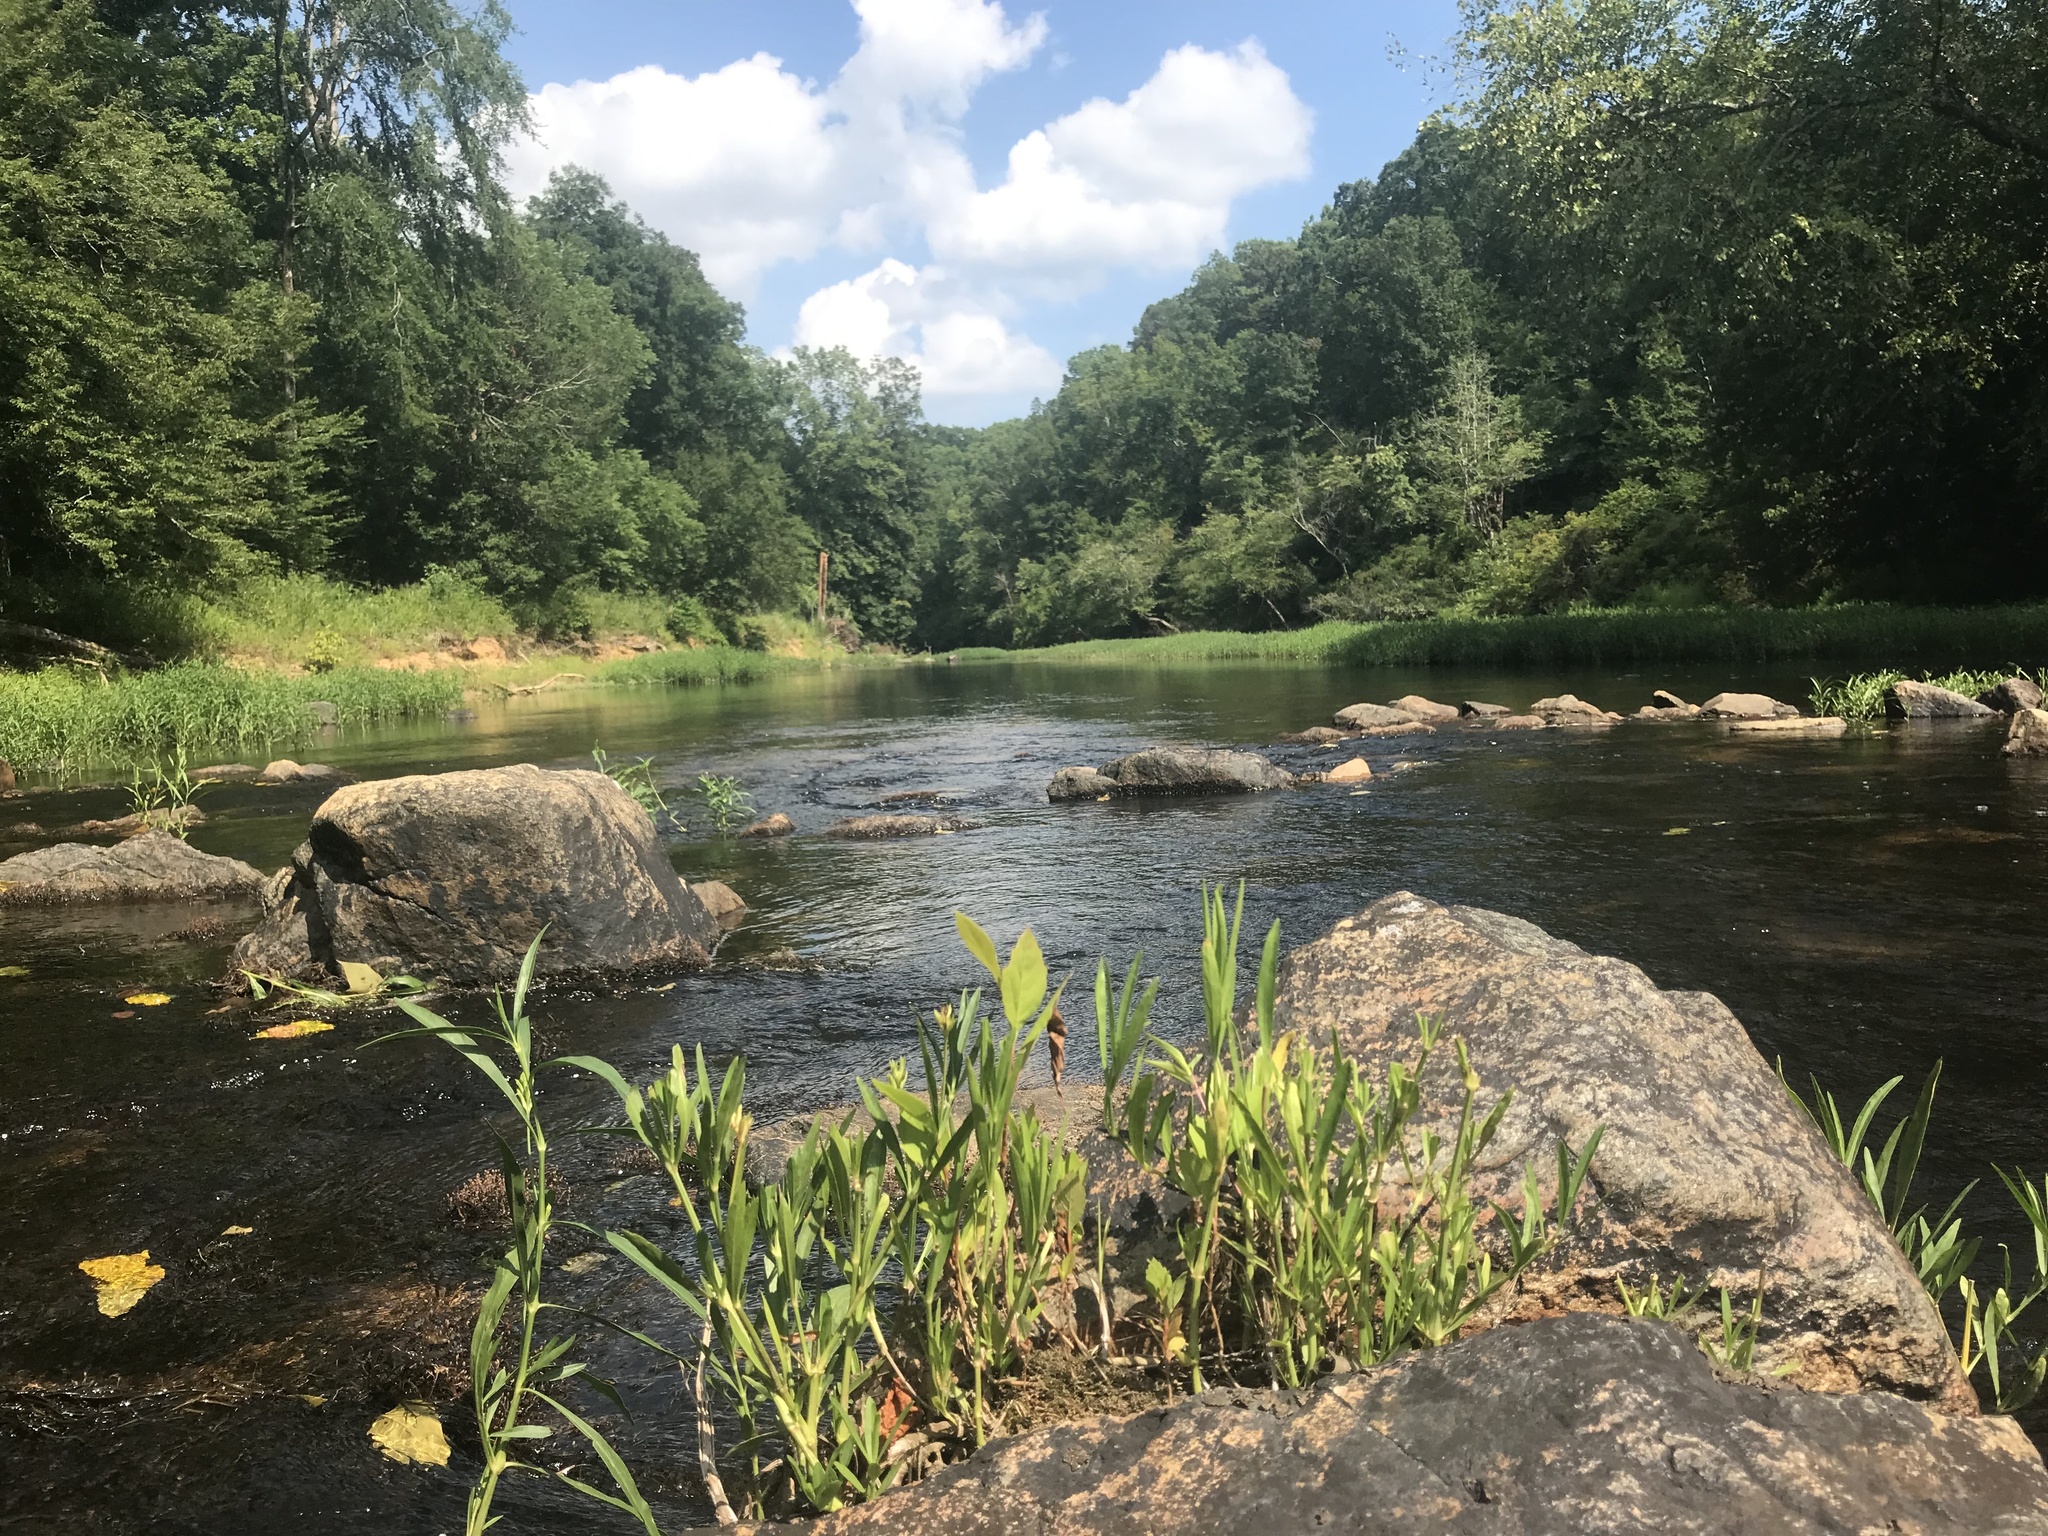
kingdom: Plantae
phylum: Tracheophyta
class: Magnoliopsida
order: Lamiales
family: Acanthaceae
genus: Dianthera
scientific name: Dianthera americana
